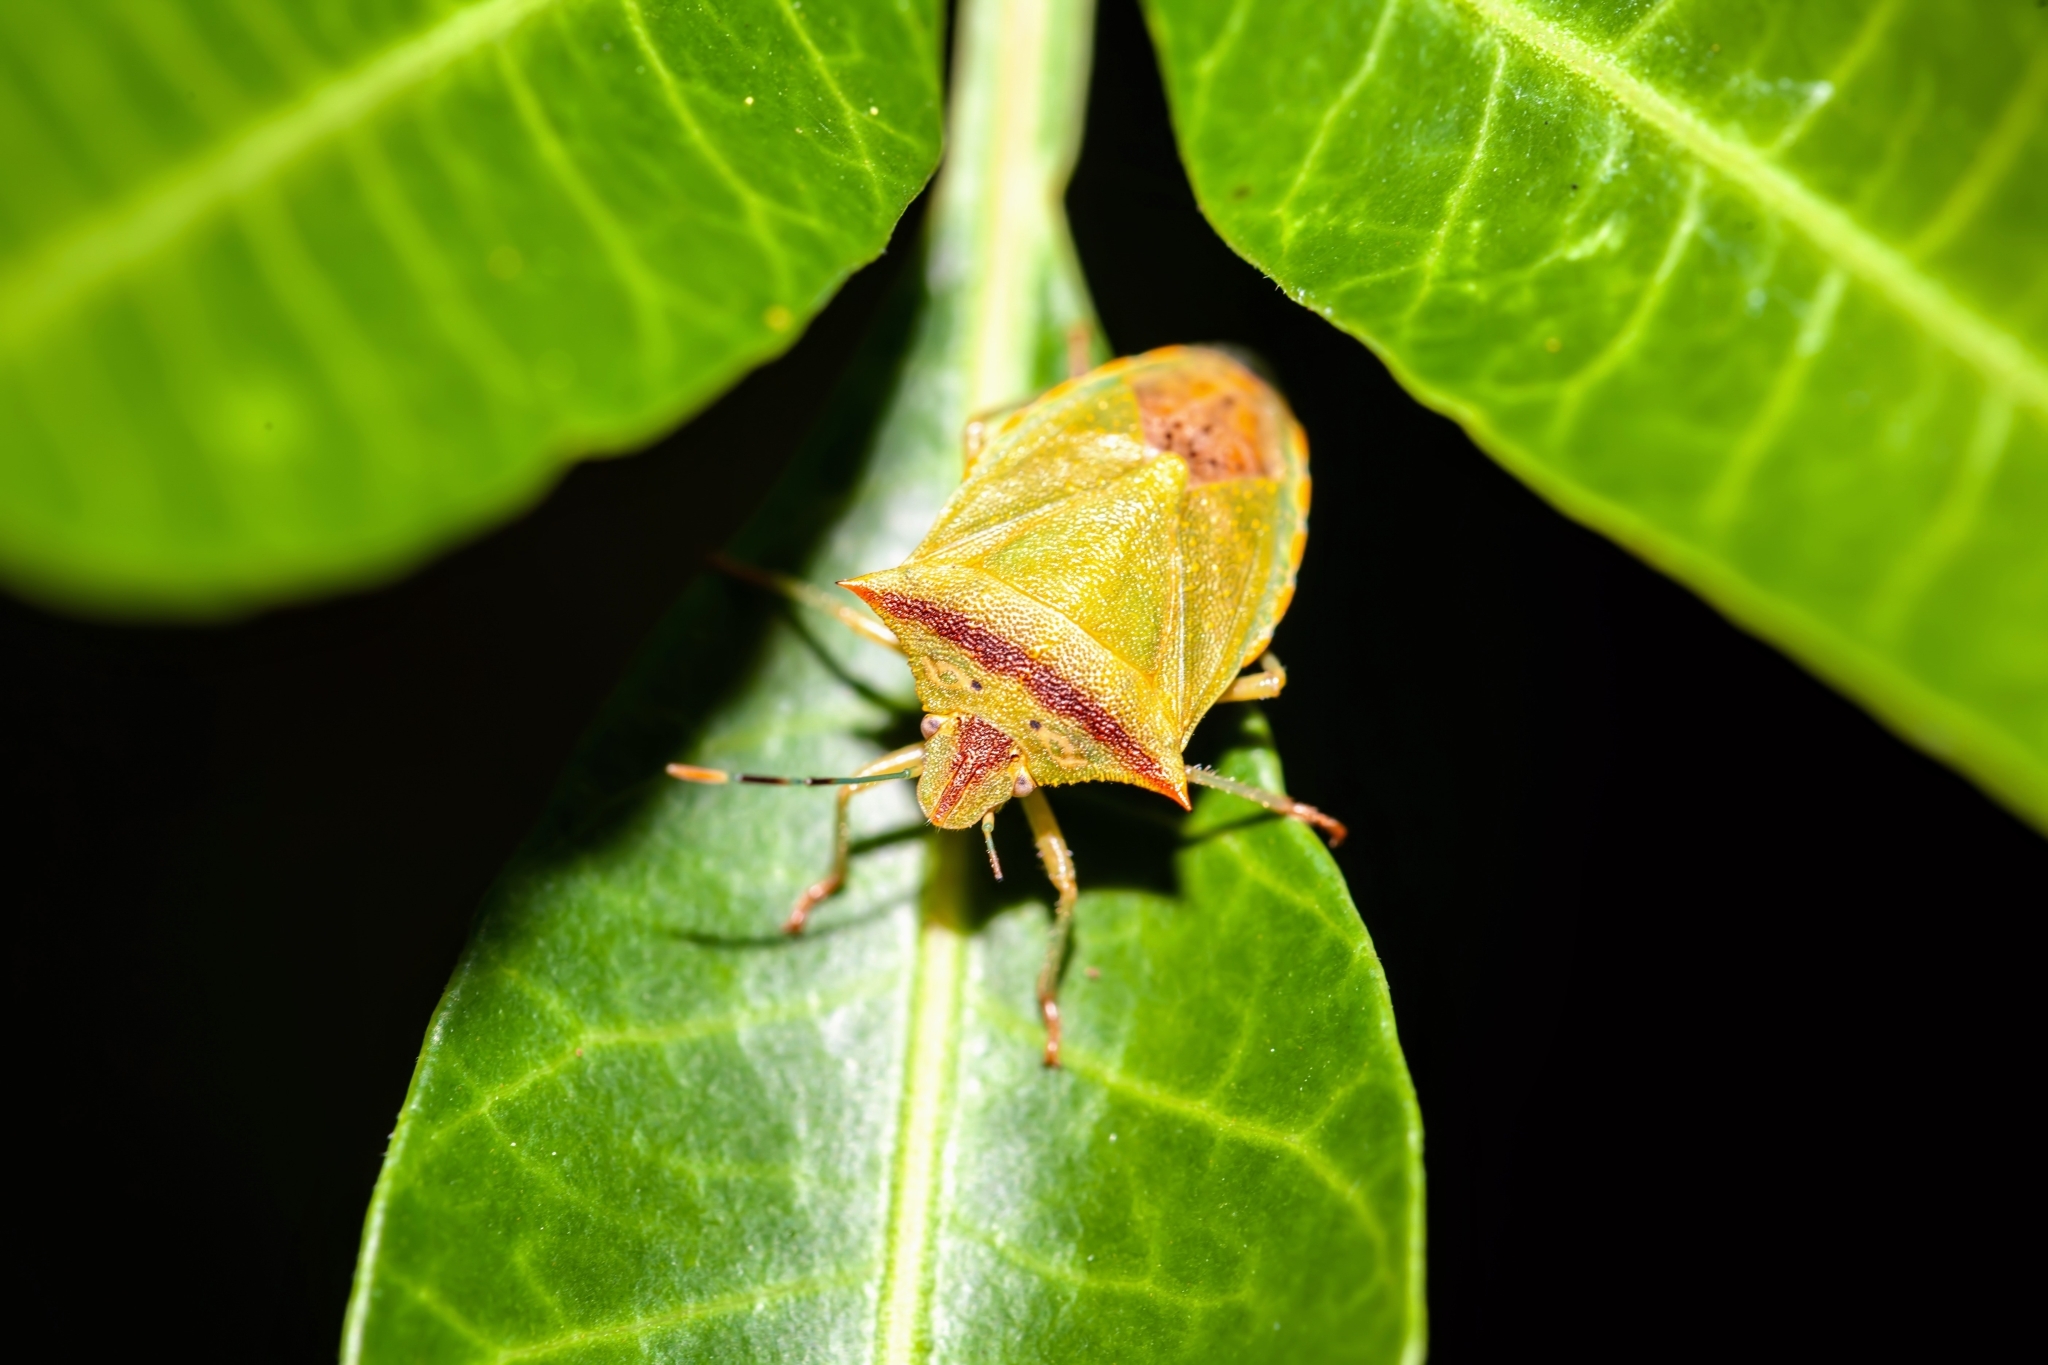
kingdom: Animalia
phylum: Arthropoda
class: Insecta
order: Hemiptera
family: Pentatomidae
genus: Thyanta
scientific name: Thyanta perditor
